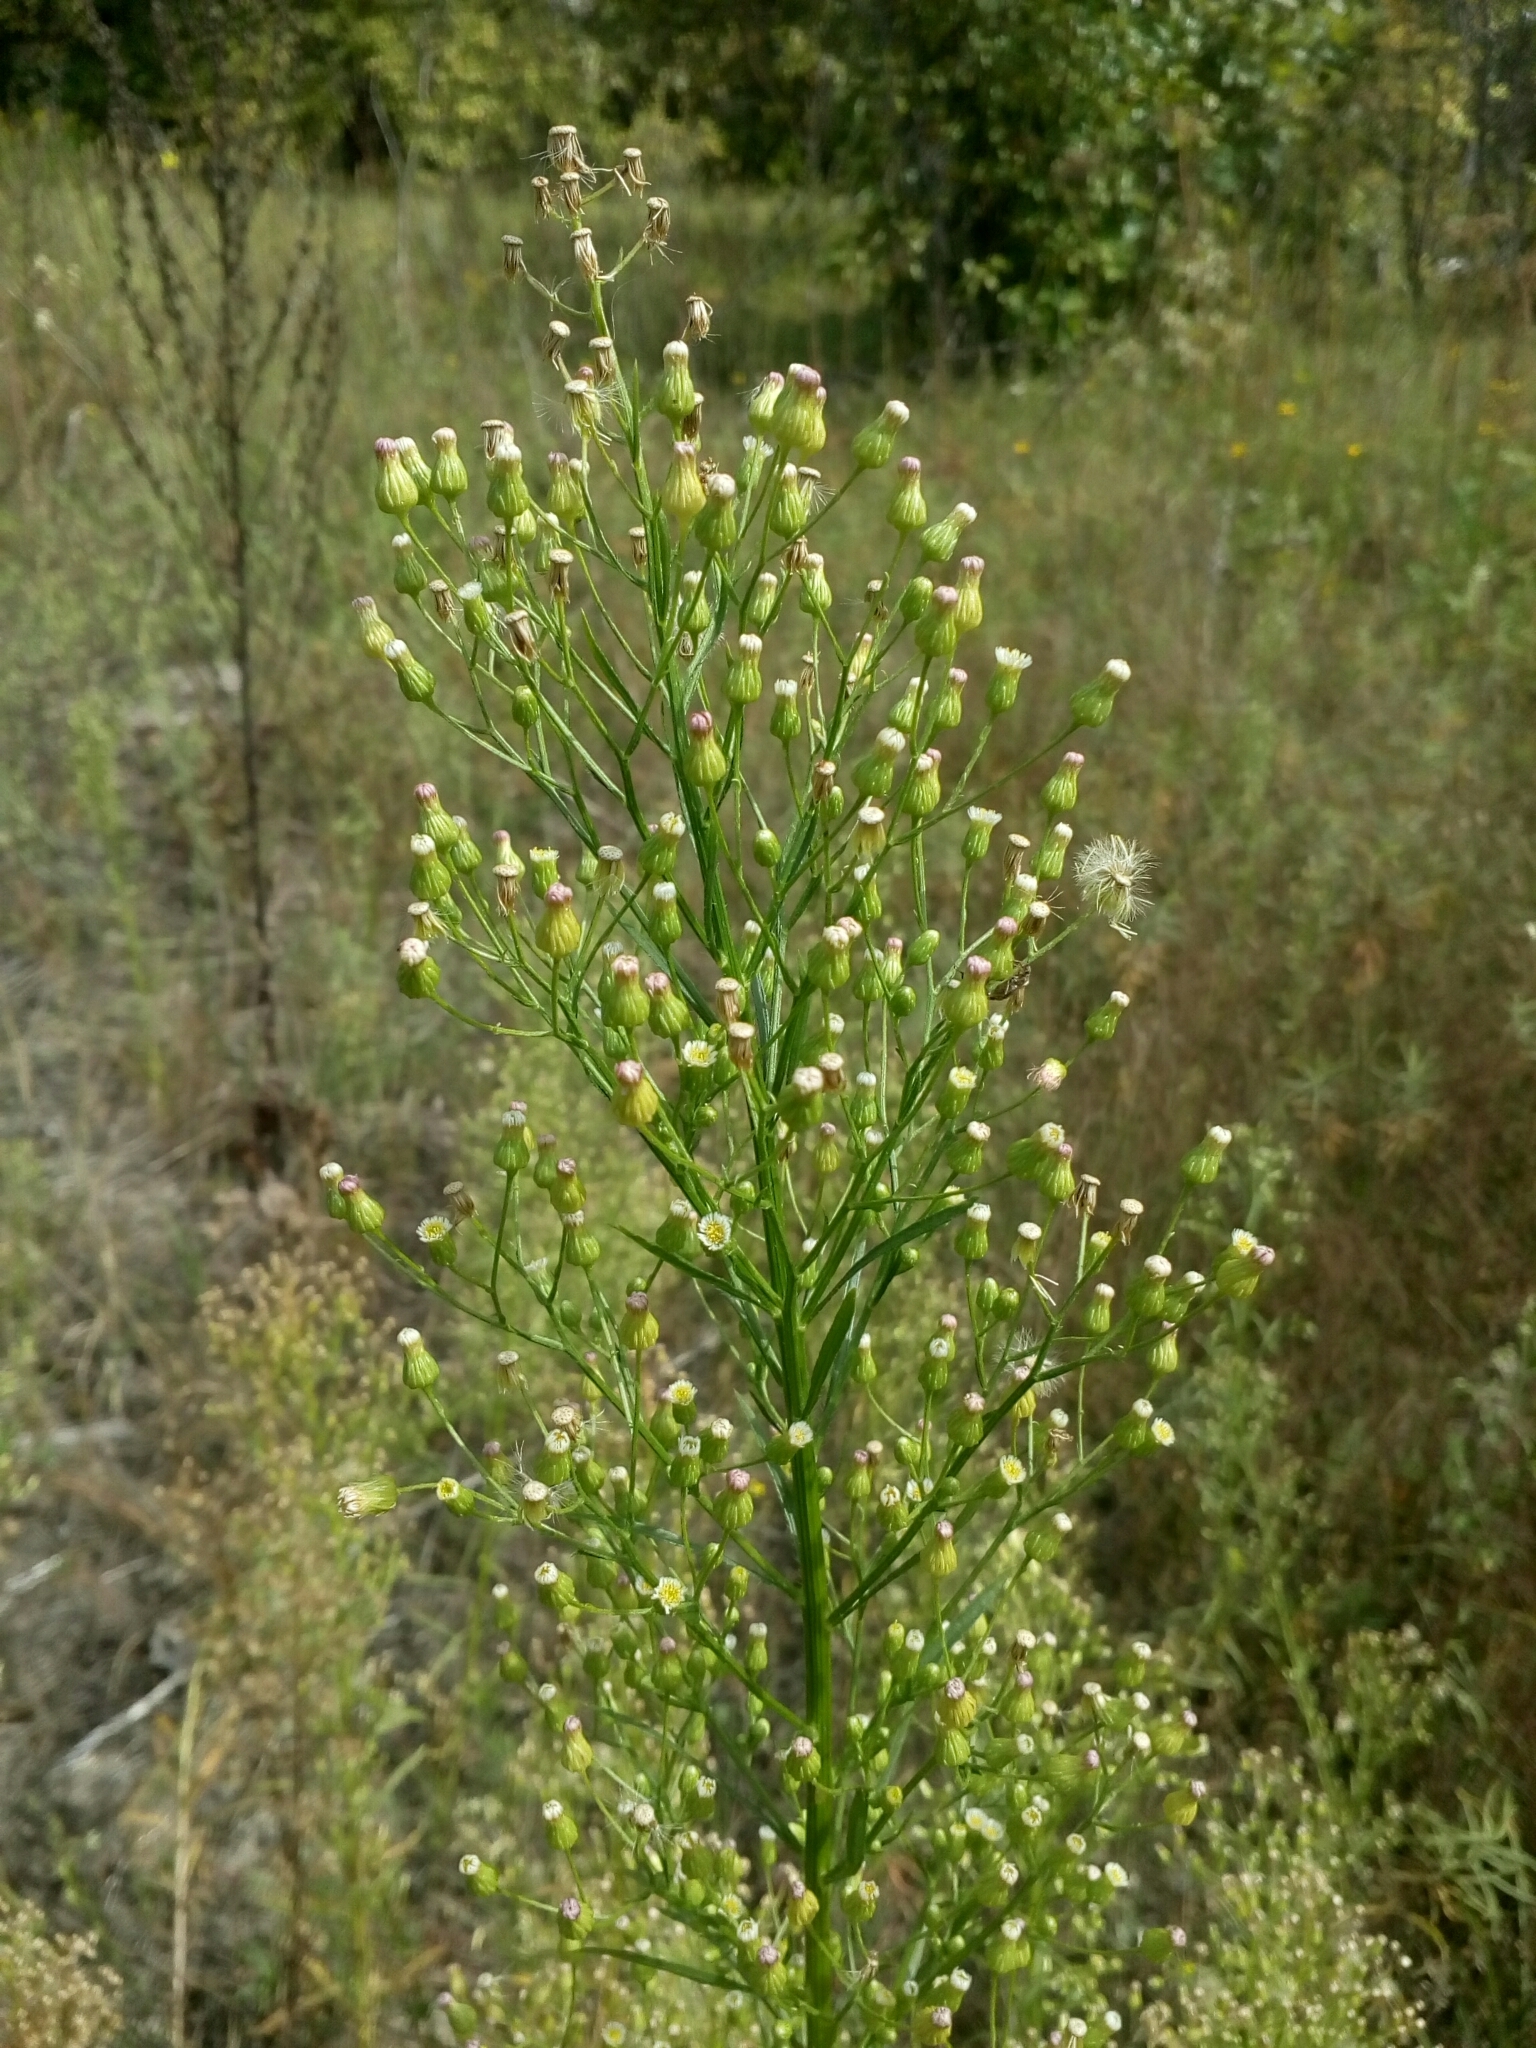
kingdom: Plantae
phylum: Tracheophyta
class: Magnoliopsida
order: Asterales
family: Asteraceae
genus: Erigeron
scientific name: Erigeron canadensis
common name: Canadian fleabane
